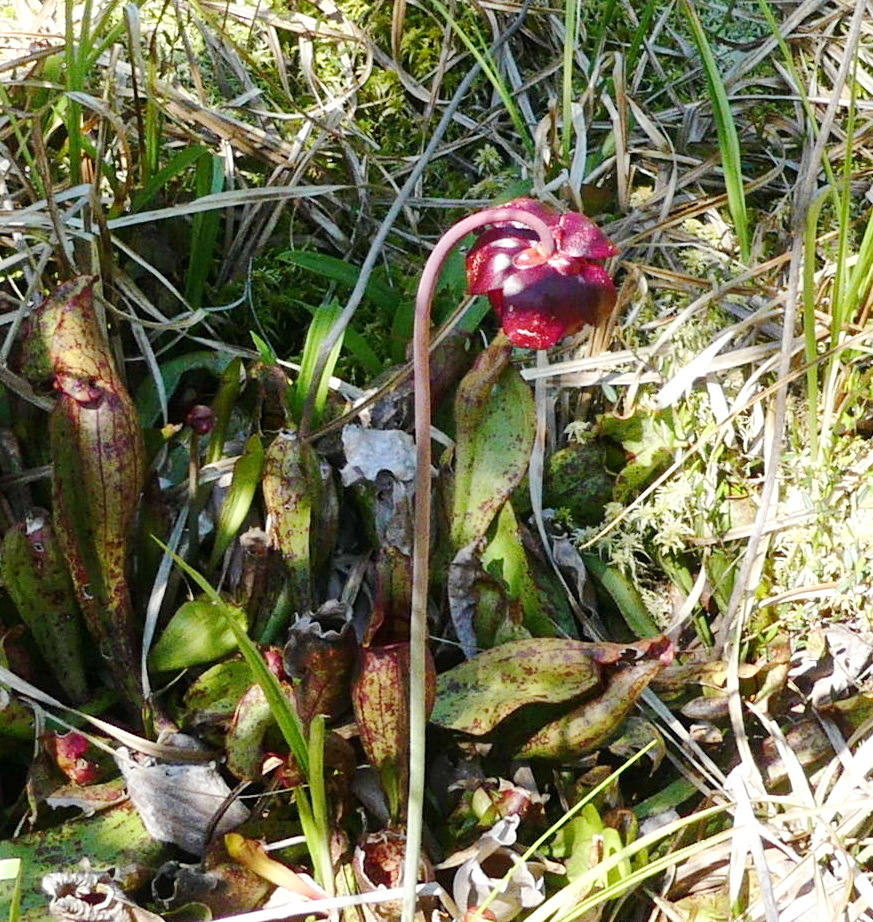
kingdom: Plantae
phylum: Tracheophyta
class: Magnoliopsida
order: Ericales
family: Sarraceniaceae
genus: Sarracenia
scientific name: Sarracenia purpurea
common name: Pitcherplant
